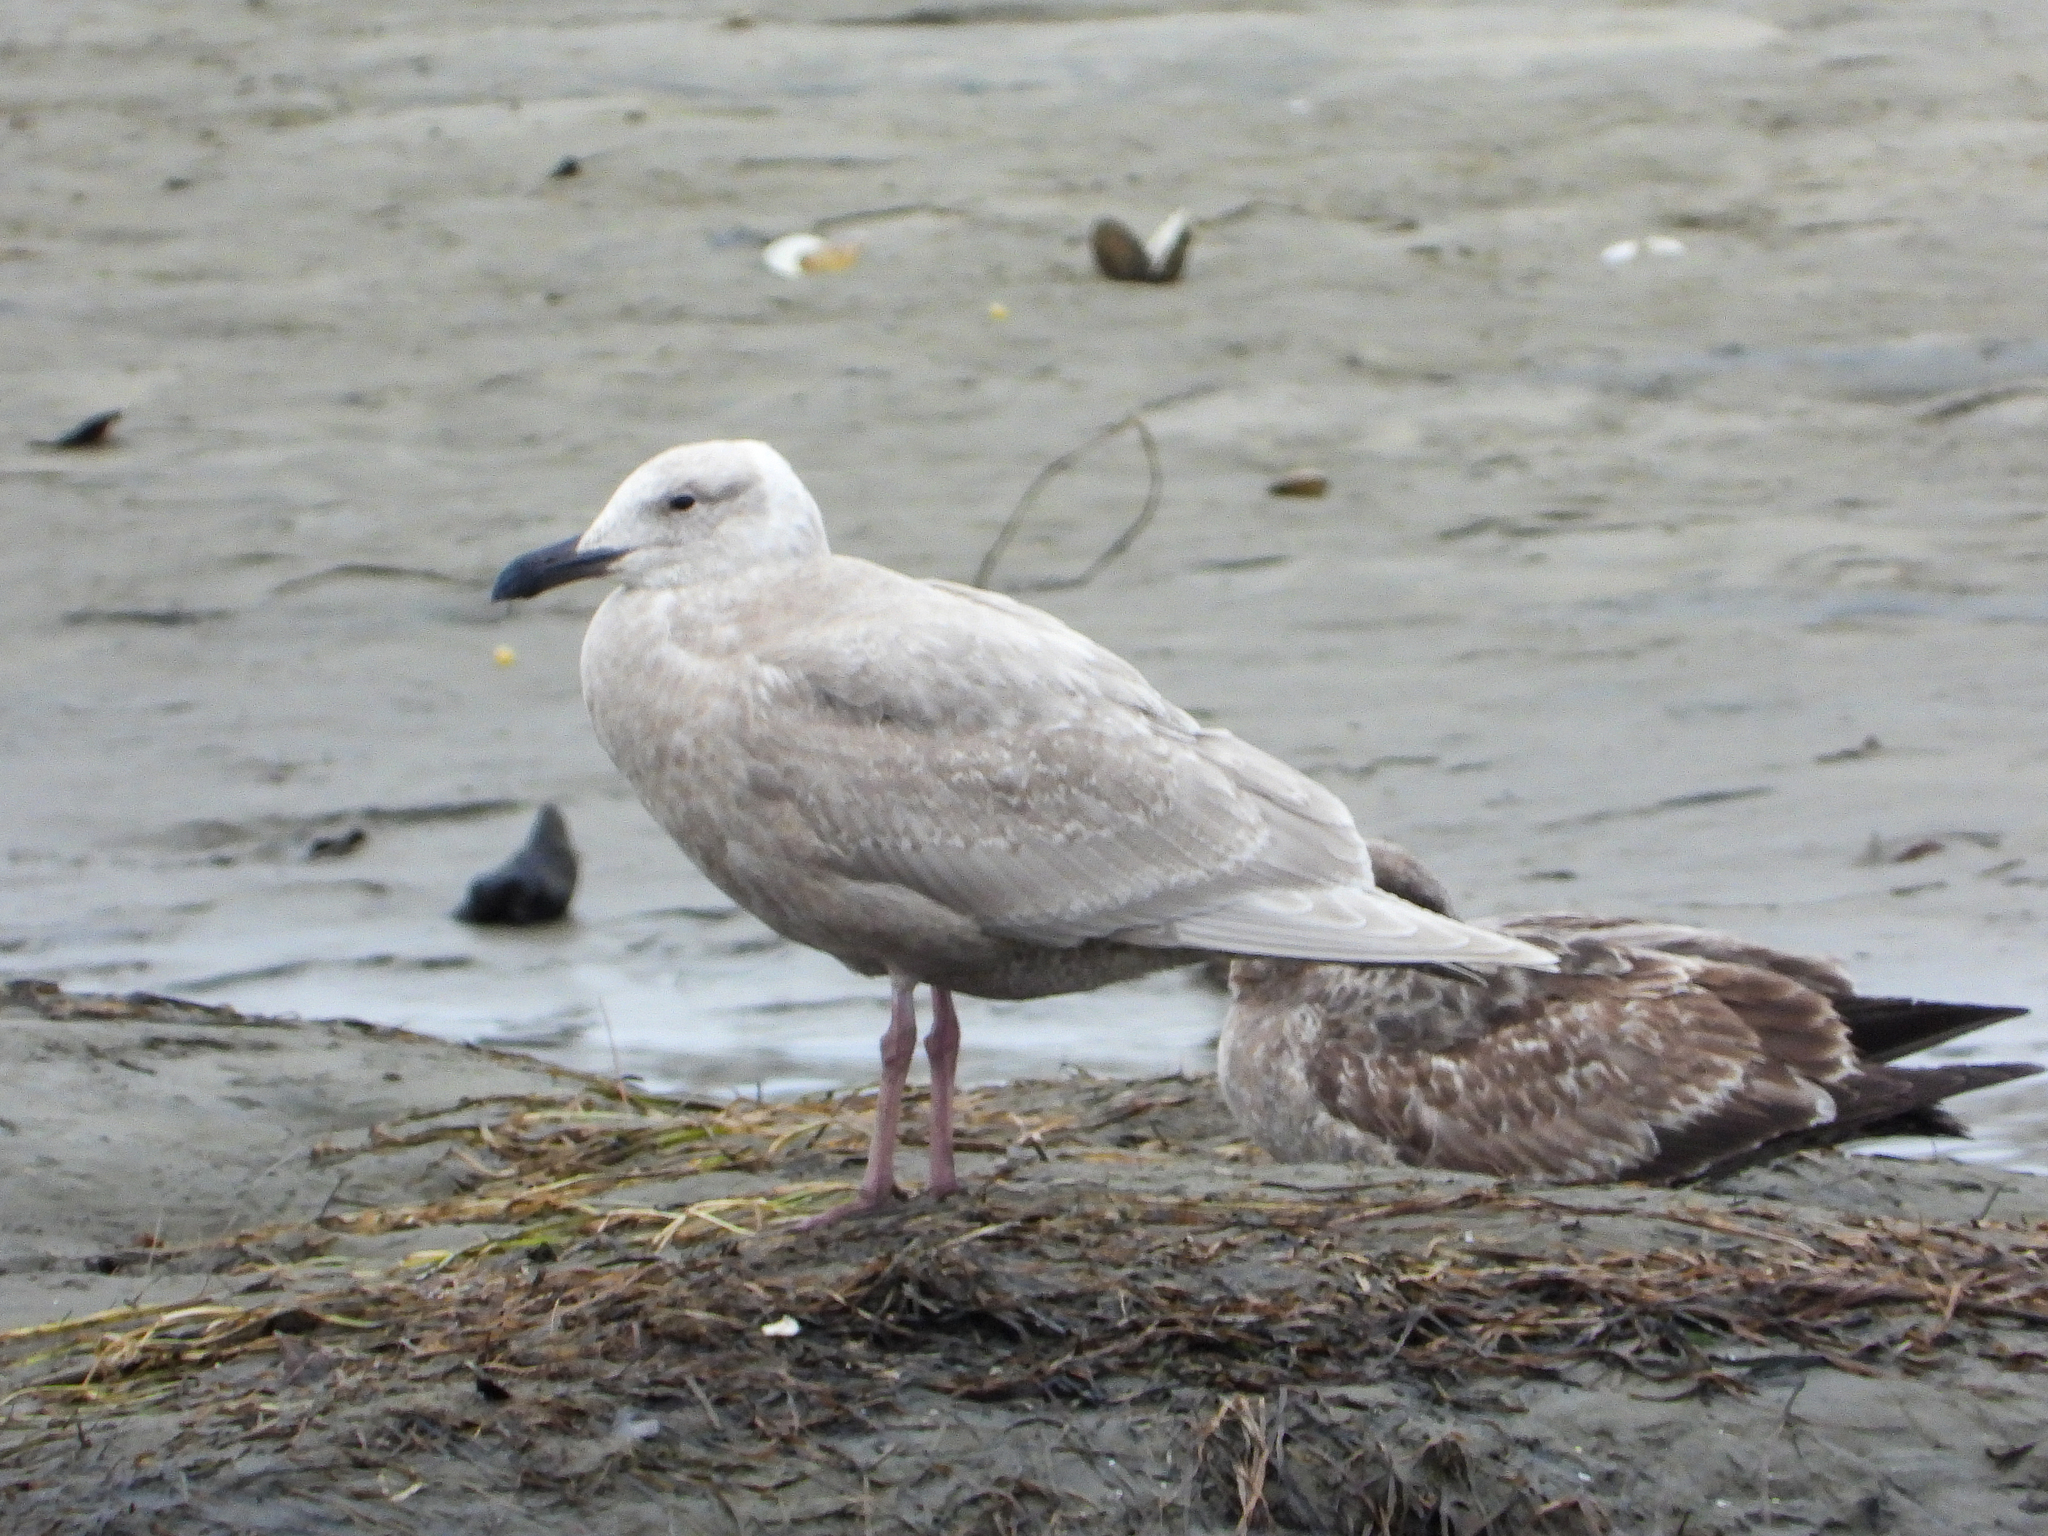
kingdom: Animalia
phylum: Chordata
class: Aves
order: Charadriiformes
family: Laridae
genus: Larus
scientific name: Larus glaucescens
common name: Glaucous-winged gull
